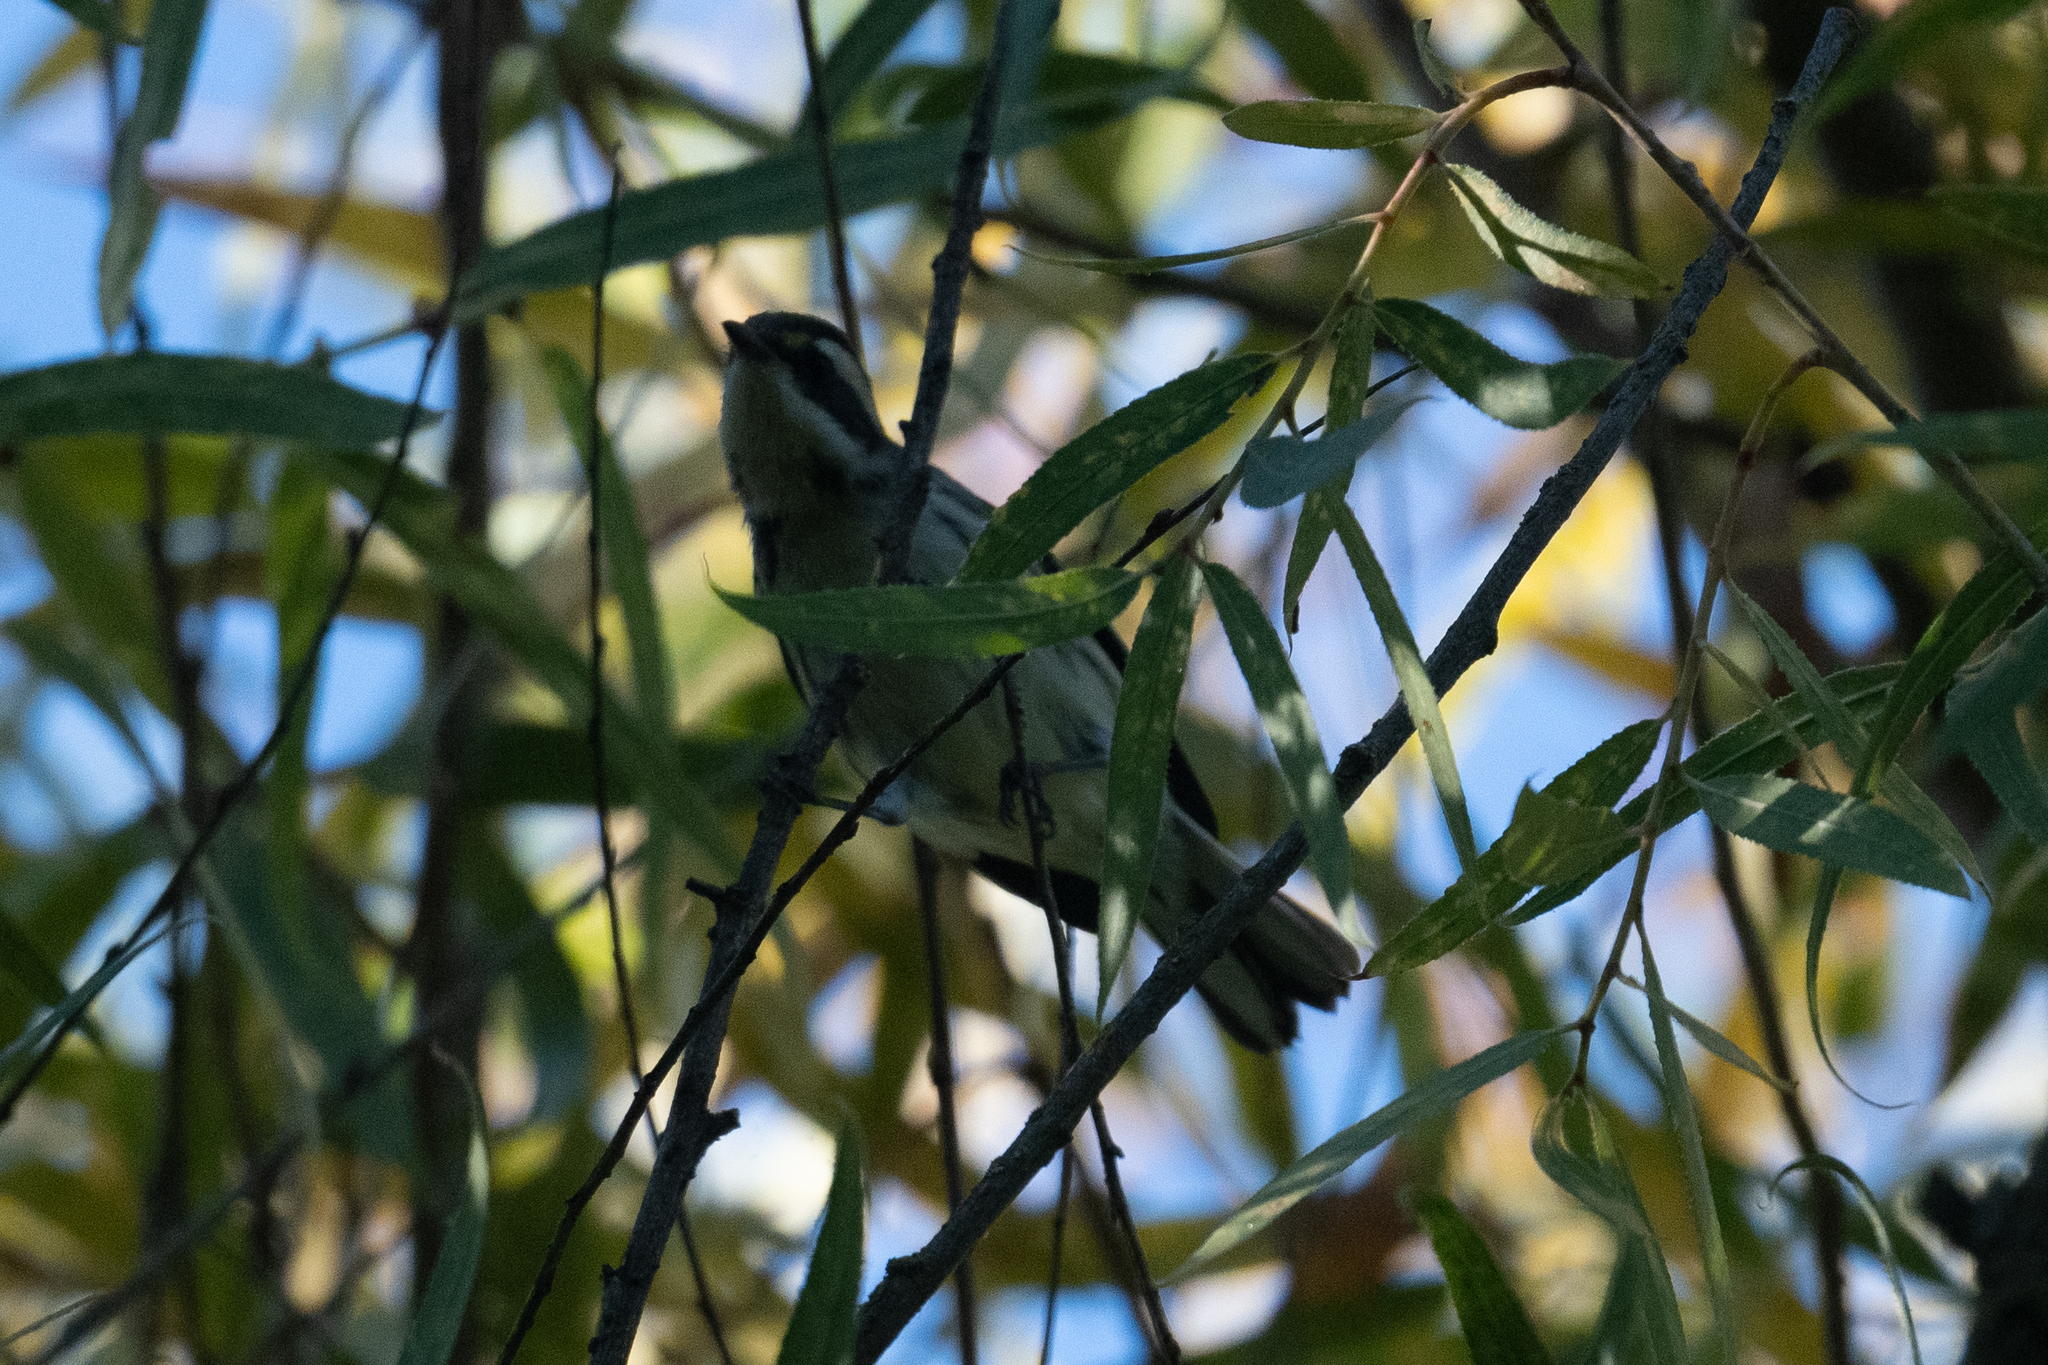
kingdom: Animalia
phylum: Chordata
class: Aves
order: Passeriformes
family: Parulidae
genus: Setophaga
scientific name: Setophaga nigrescens
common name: Black-throated gray warbler
